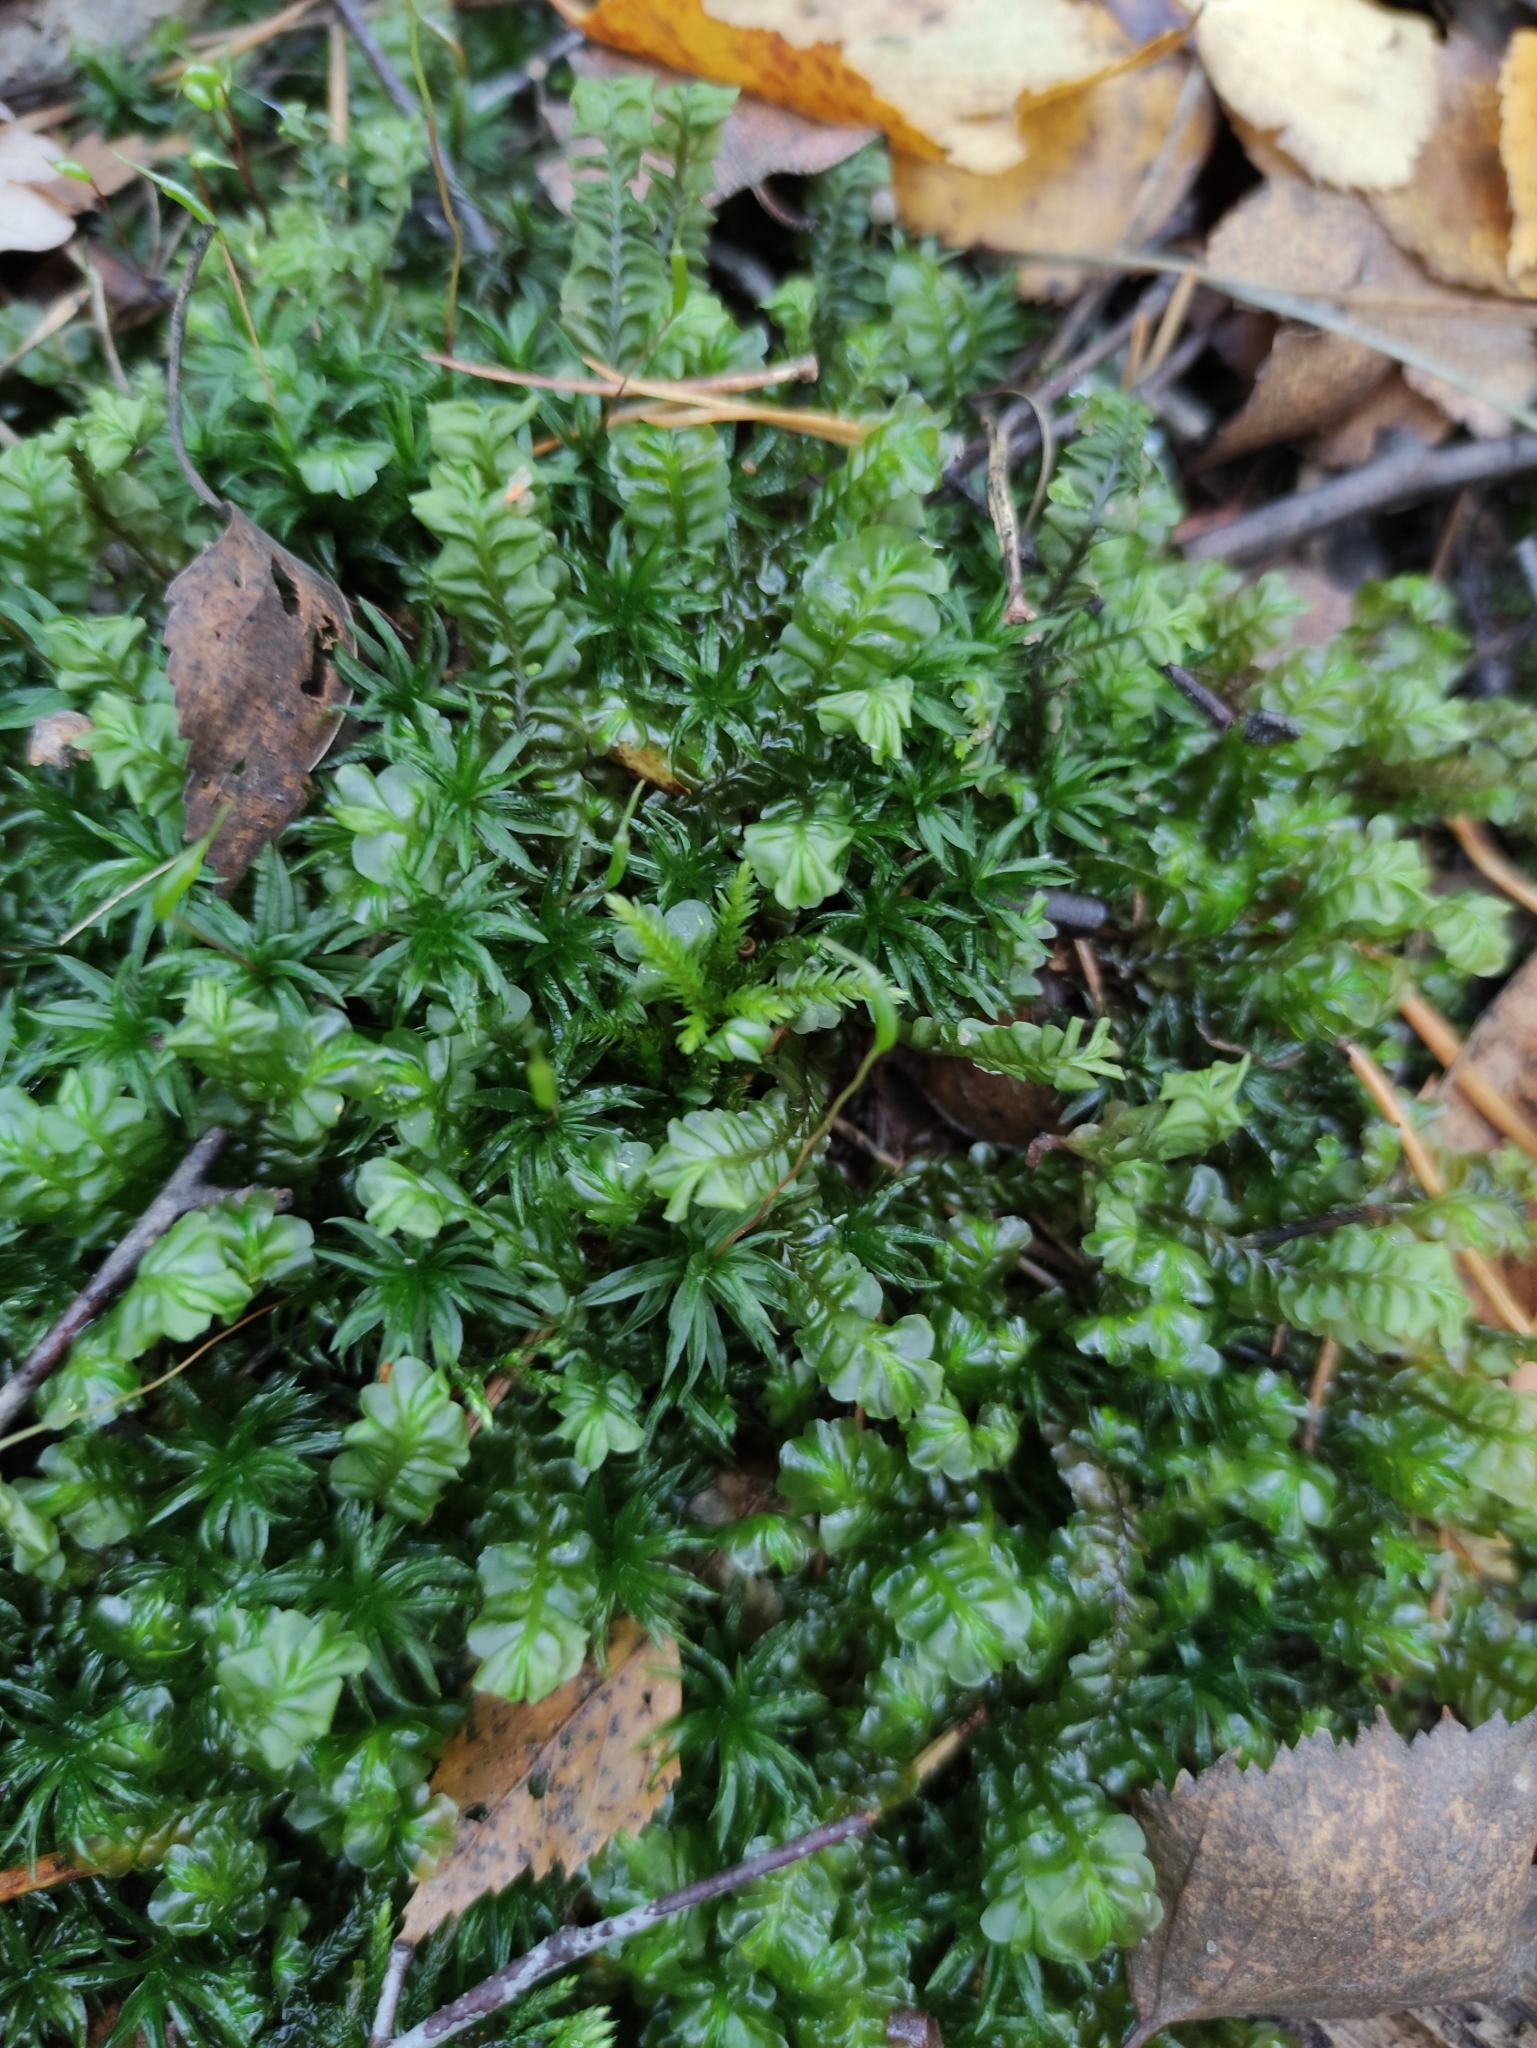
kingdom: Plantae
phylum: Marchantiophyta
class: Jungermanniopsida
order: Jungermanniales
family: Plagiochilaceae
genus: Plagiochila
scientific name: Plagiochila asplenioides
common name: Greater featherwort
